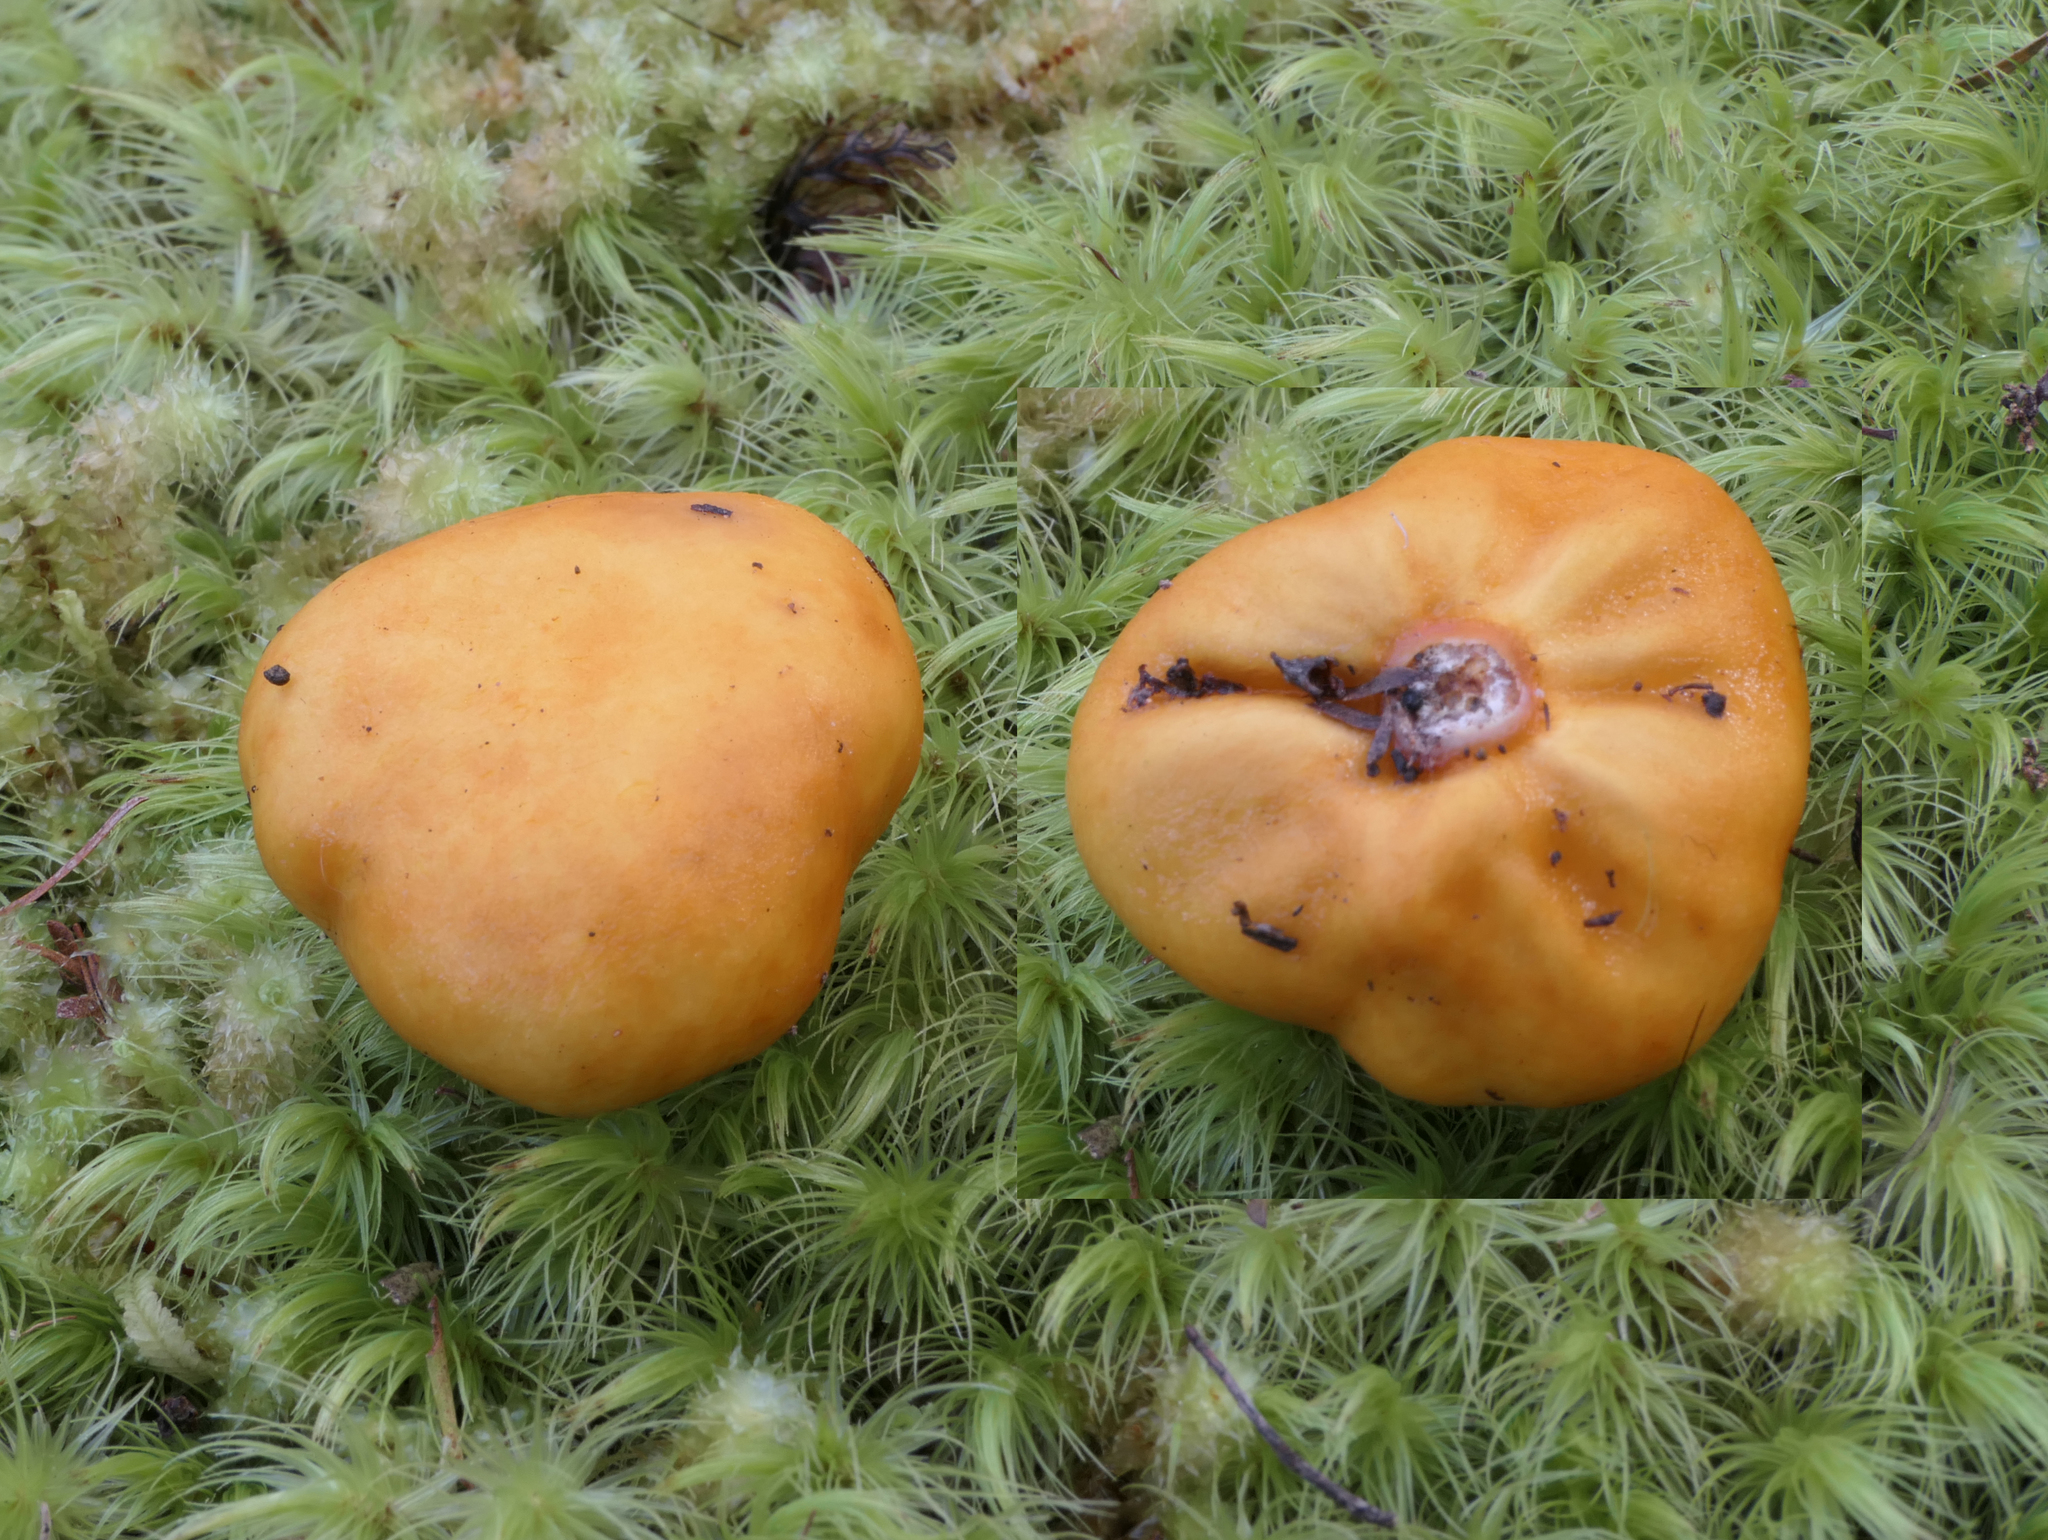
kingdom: Fungi
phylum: Basidiomycota
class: Agaricomycetes
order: Agaricales
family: Cortinariaceae
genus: Cortinarius
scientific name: Cortinarius peraurantiacus
